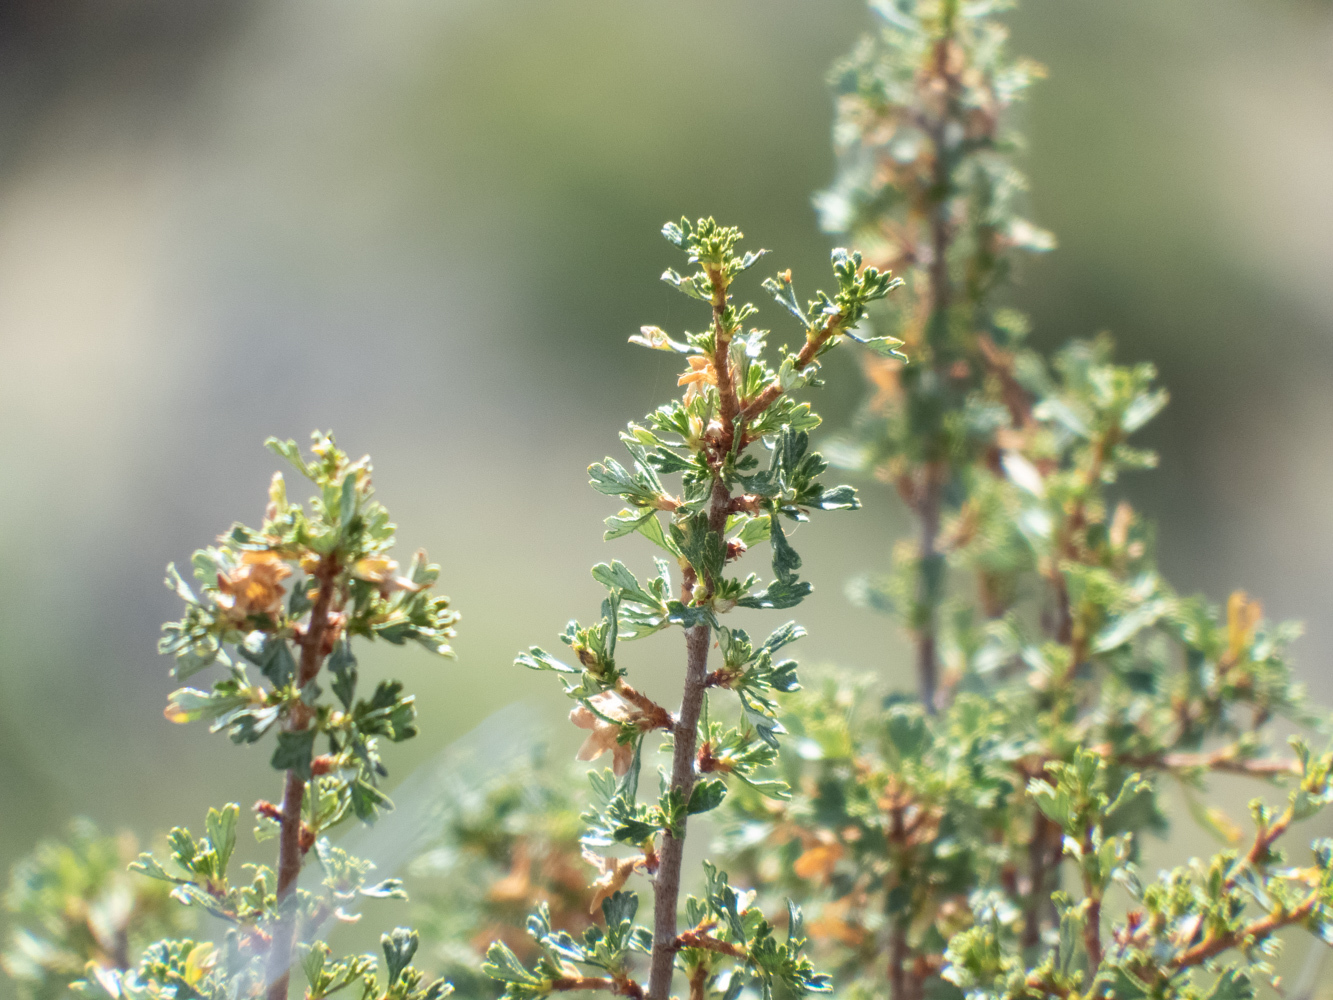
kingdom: Plantae
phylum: Tracheophyta
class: Magnoliopsida
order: Rosales
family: Rosaceae
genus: Purshia
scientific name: Purshia tridentata
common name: Antelope bitterbrush
